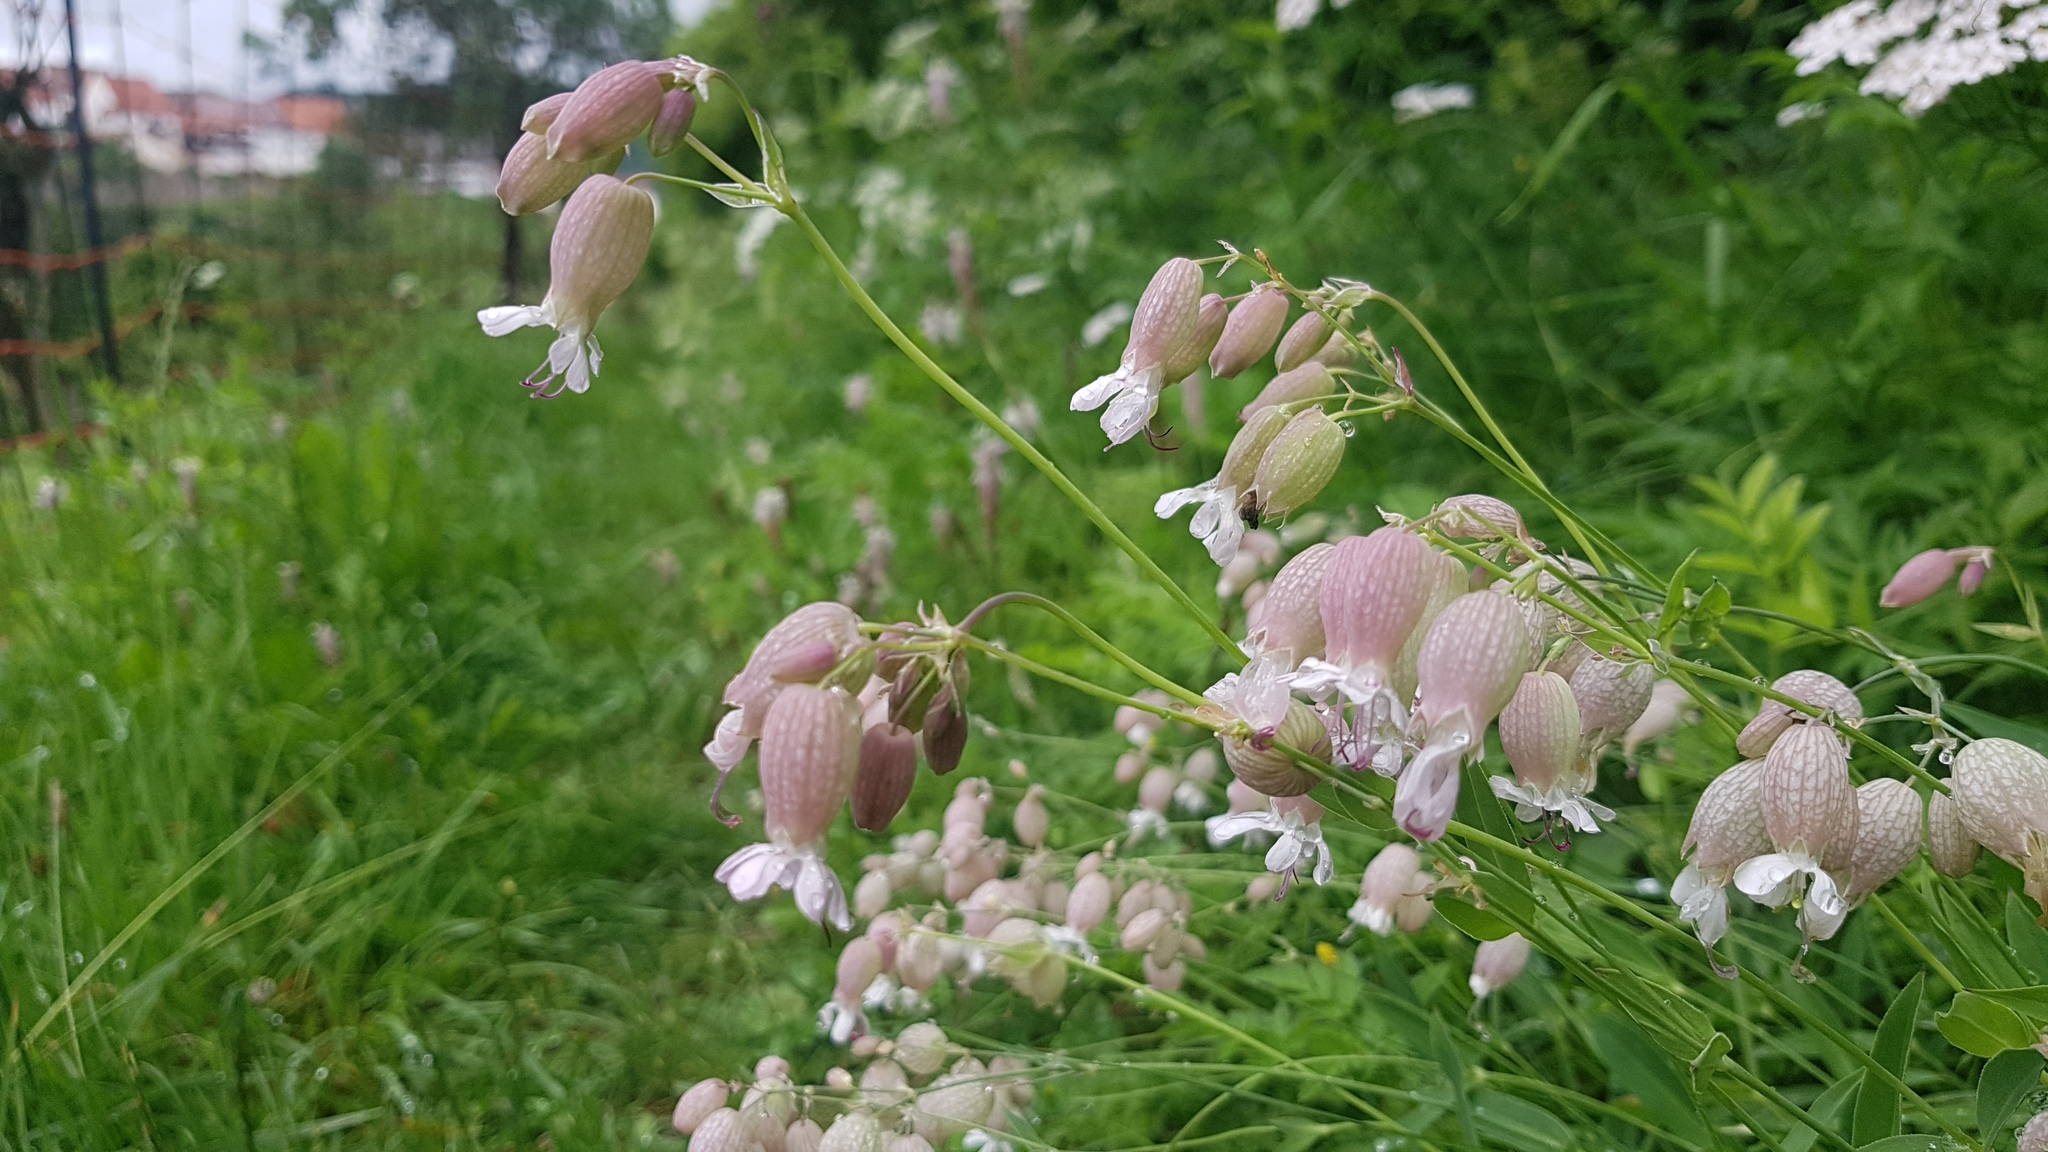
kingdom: Plantae
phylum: Tracheophyta
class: Magnoliopsida
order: Caryophyllales
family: Caryophyllaceae
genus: Silene
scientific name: Silene vulgaris
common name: Bladder campion
